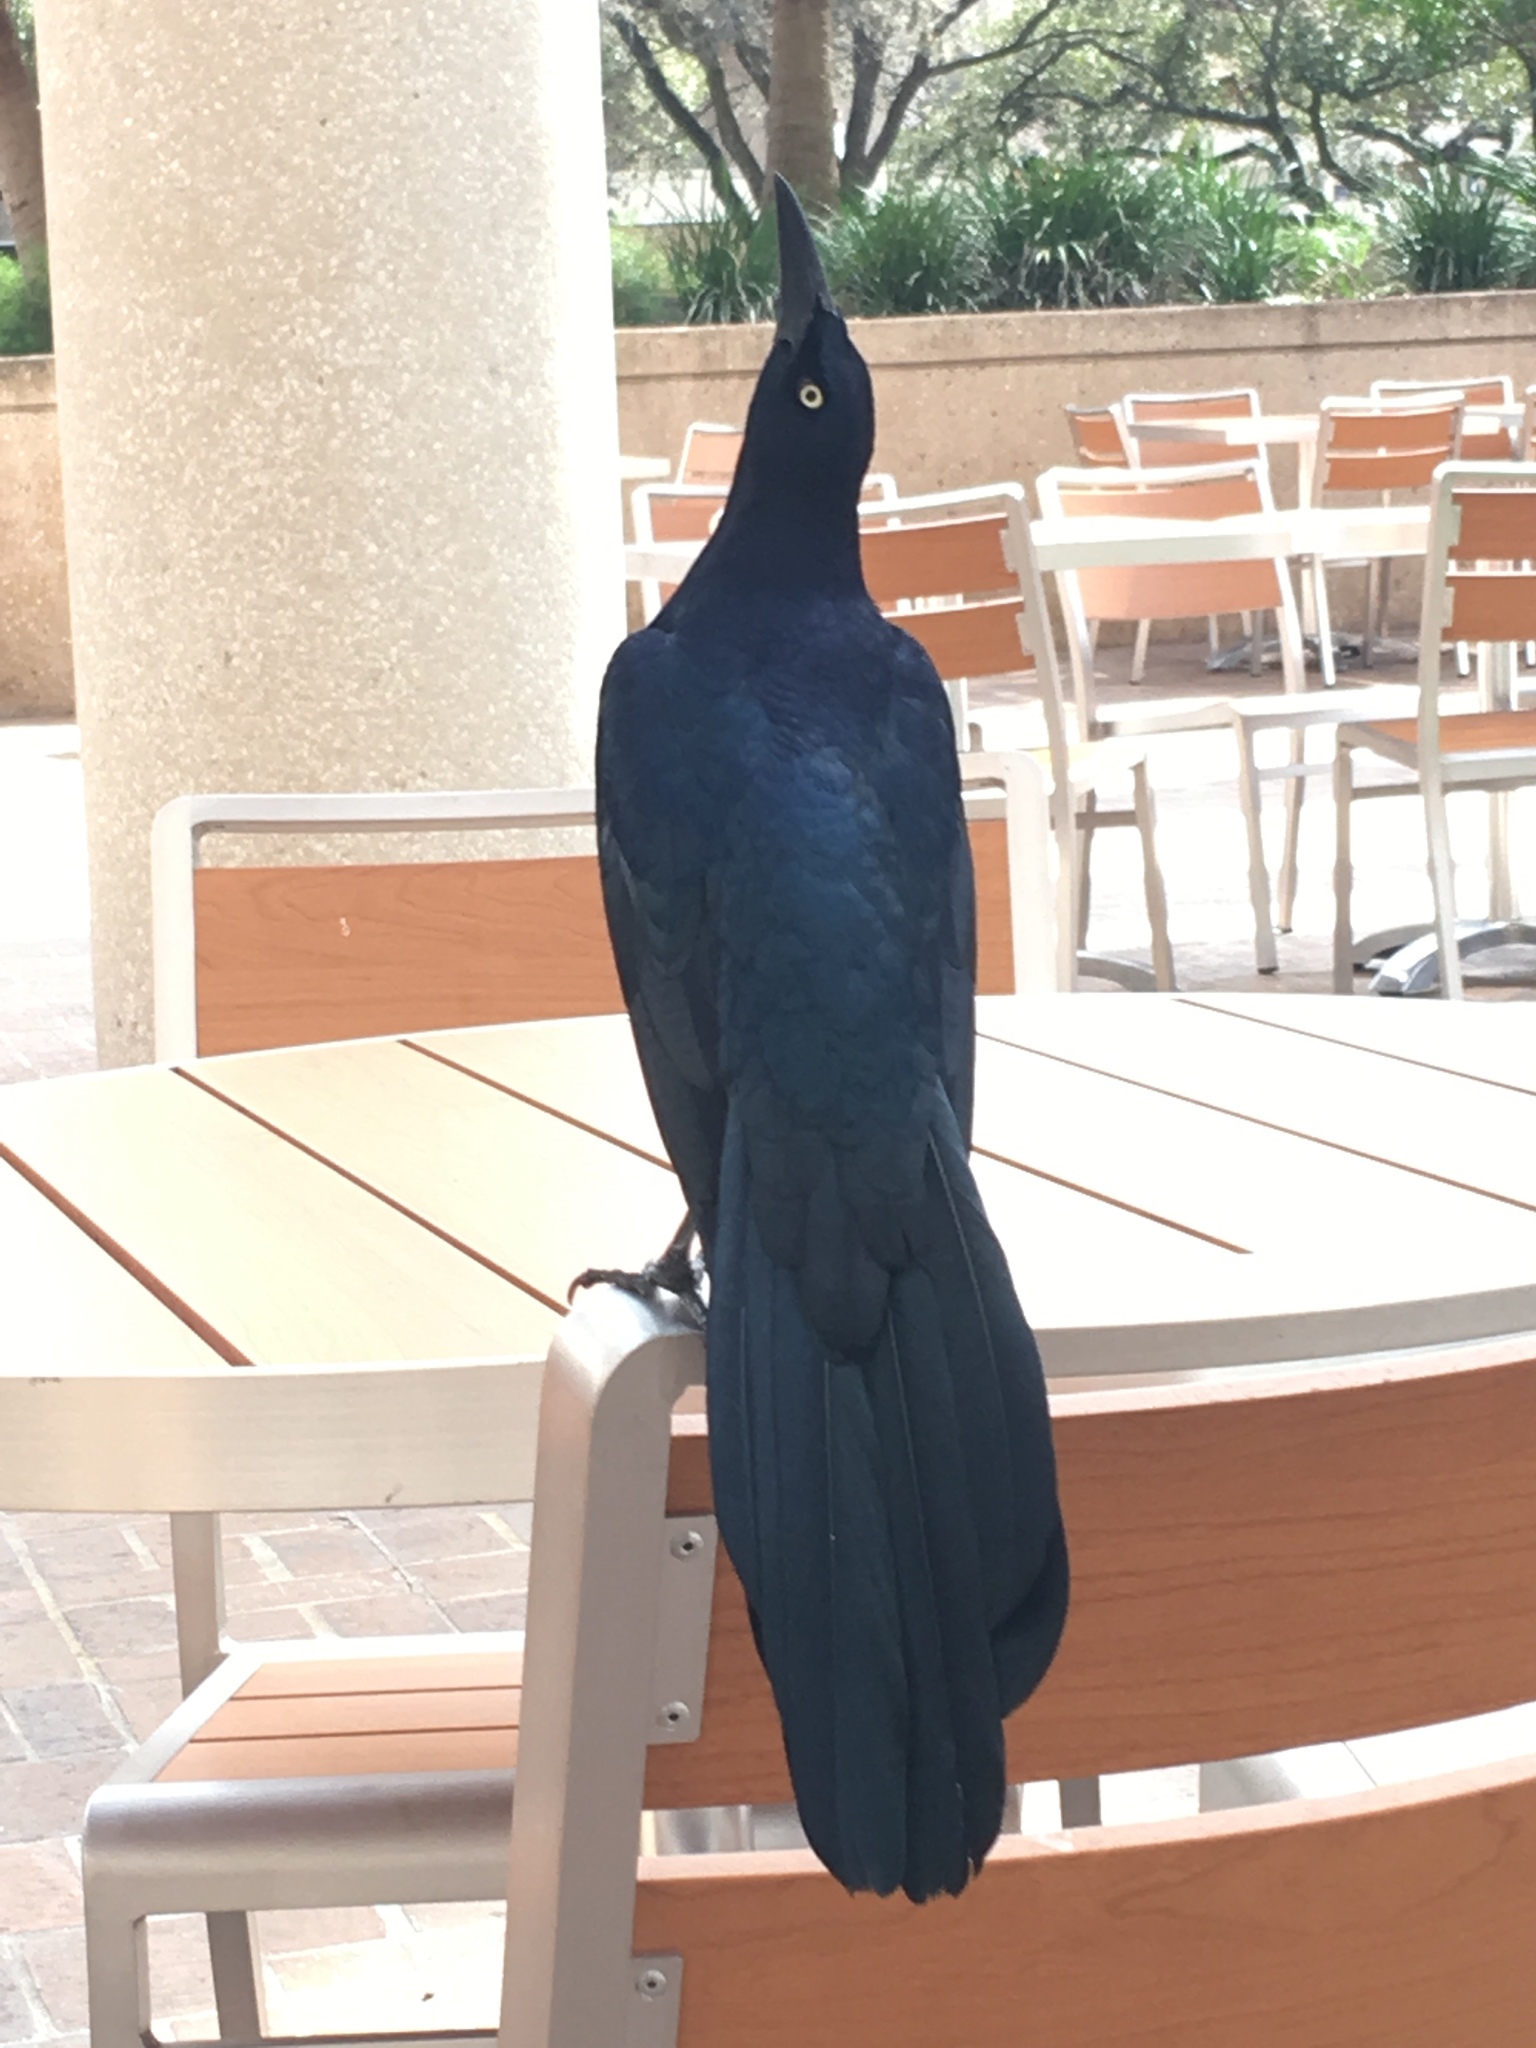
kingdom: Animalia
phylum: Chordata
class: Aves
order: Passeriformes
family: Icteridae
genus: Quiscalus
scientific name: Quiscalus mexicanus
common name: Great-tailed grackle
